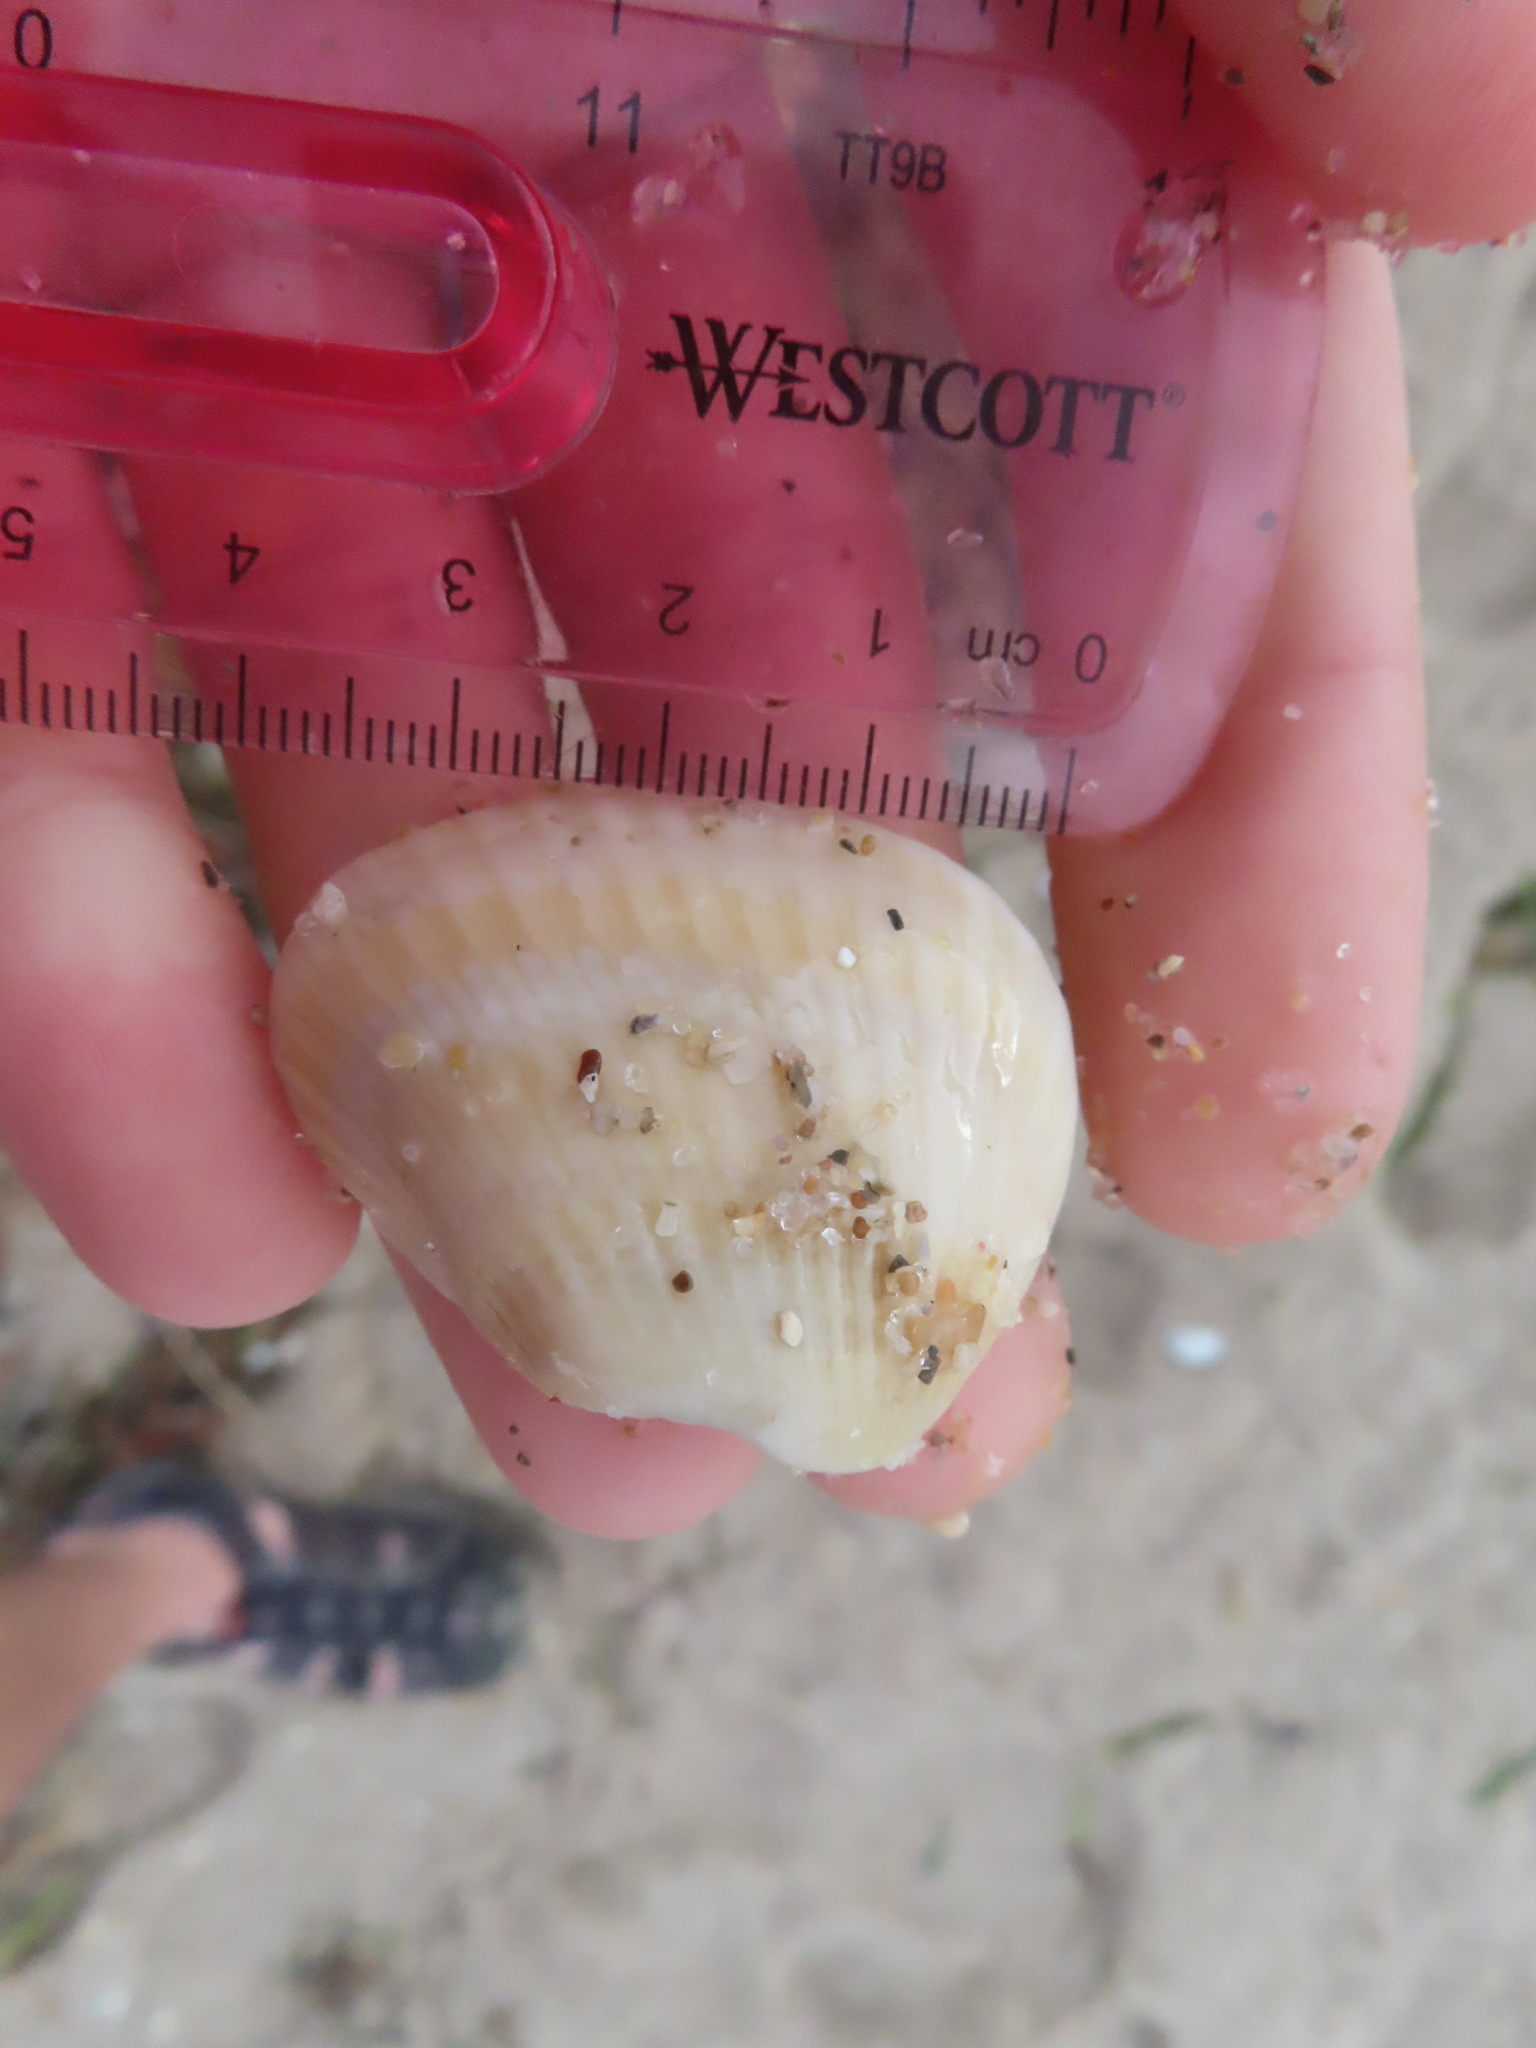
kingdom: Animalia
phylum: Mollusca
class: Bivalvia
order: Arcida
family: Noetiidae
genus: Noetia
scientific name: Noetia ponderosa
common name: Ponderous ark
